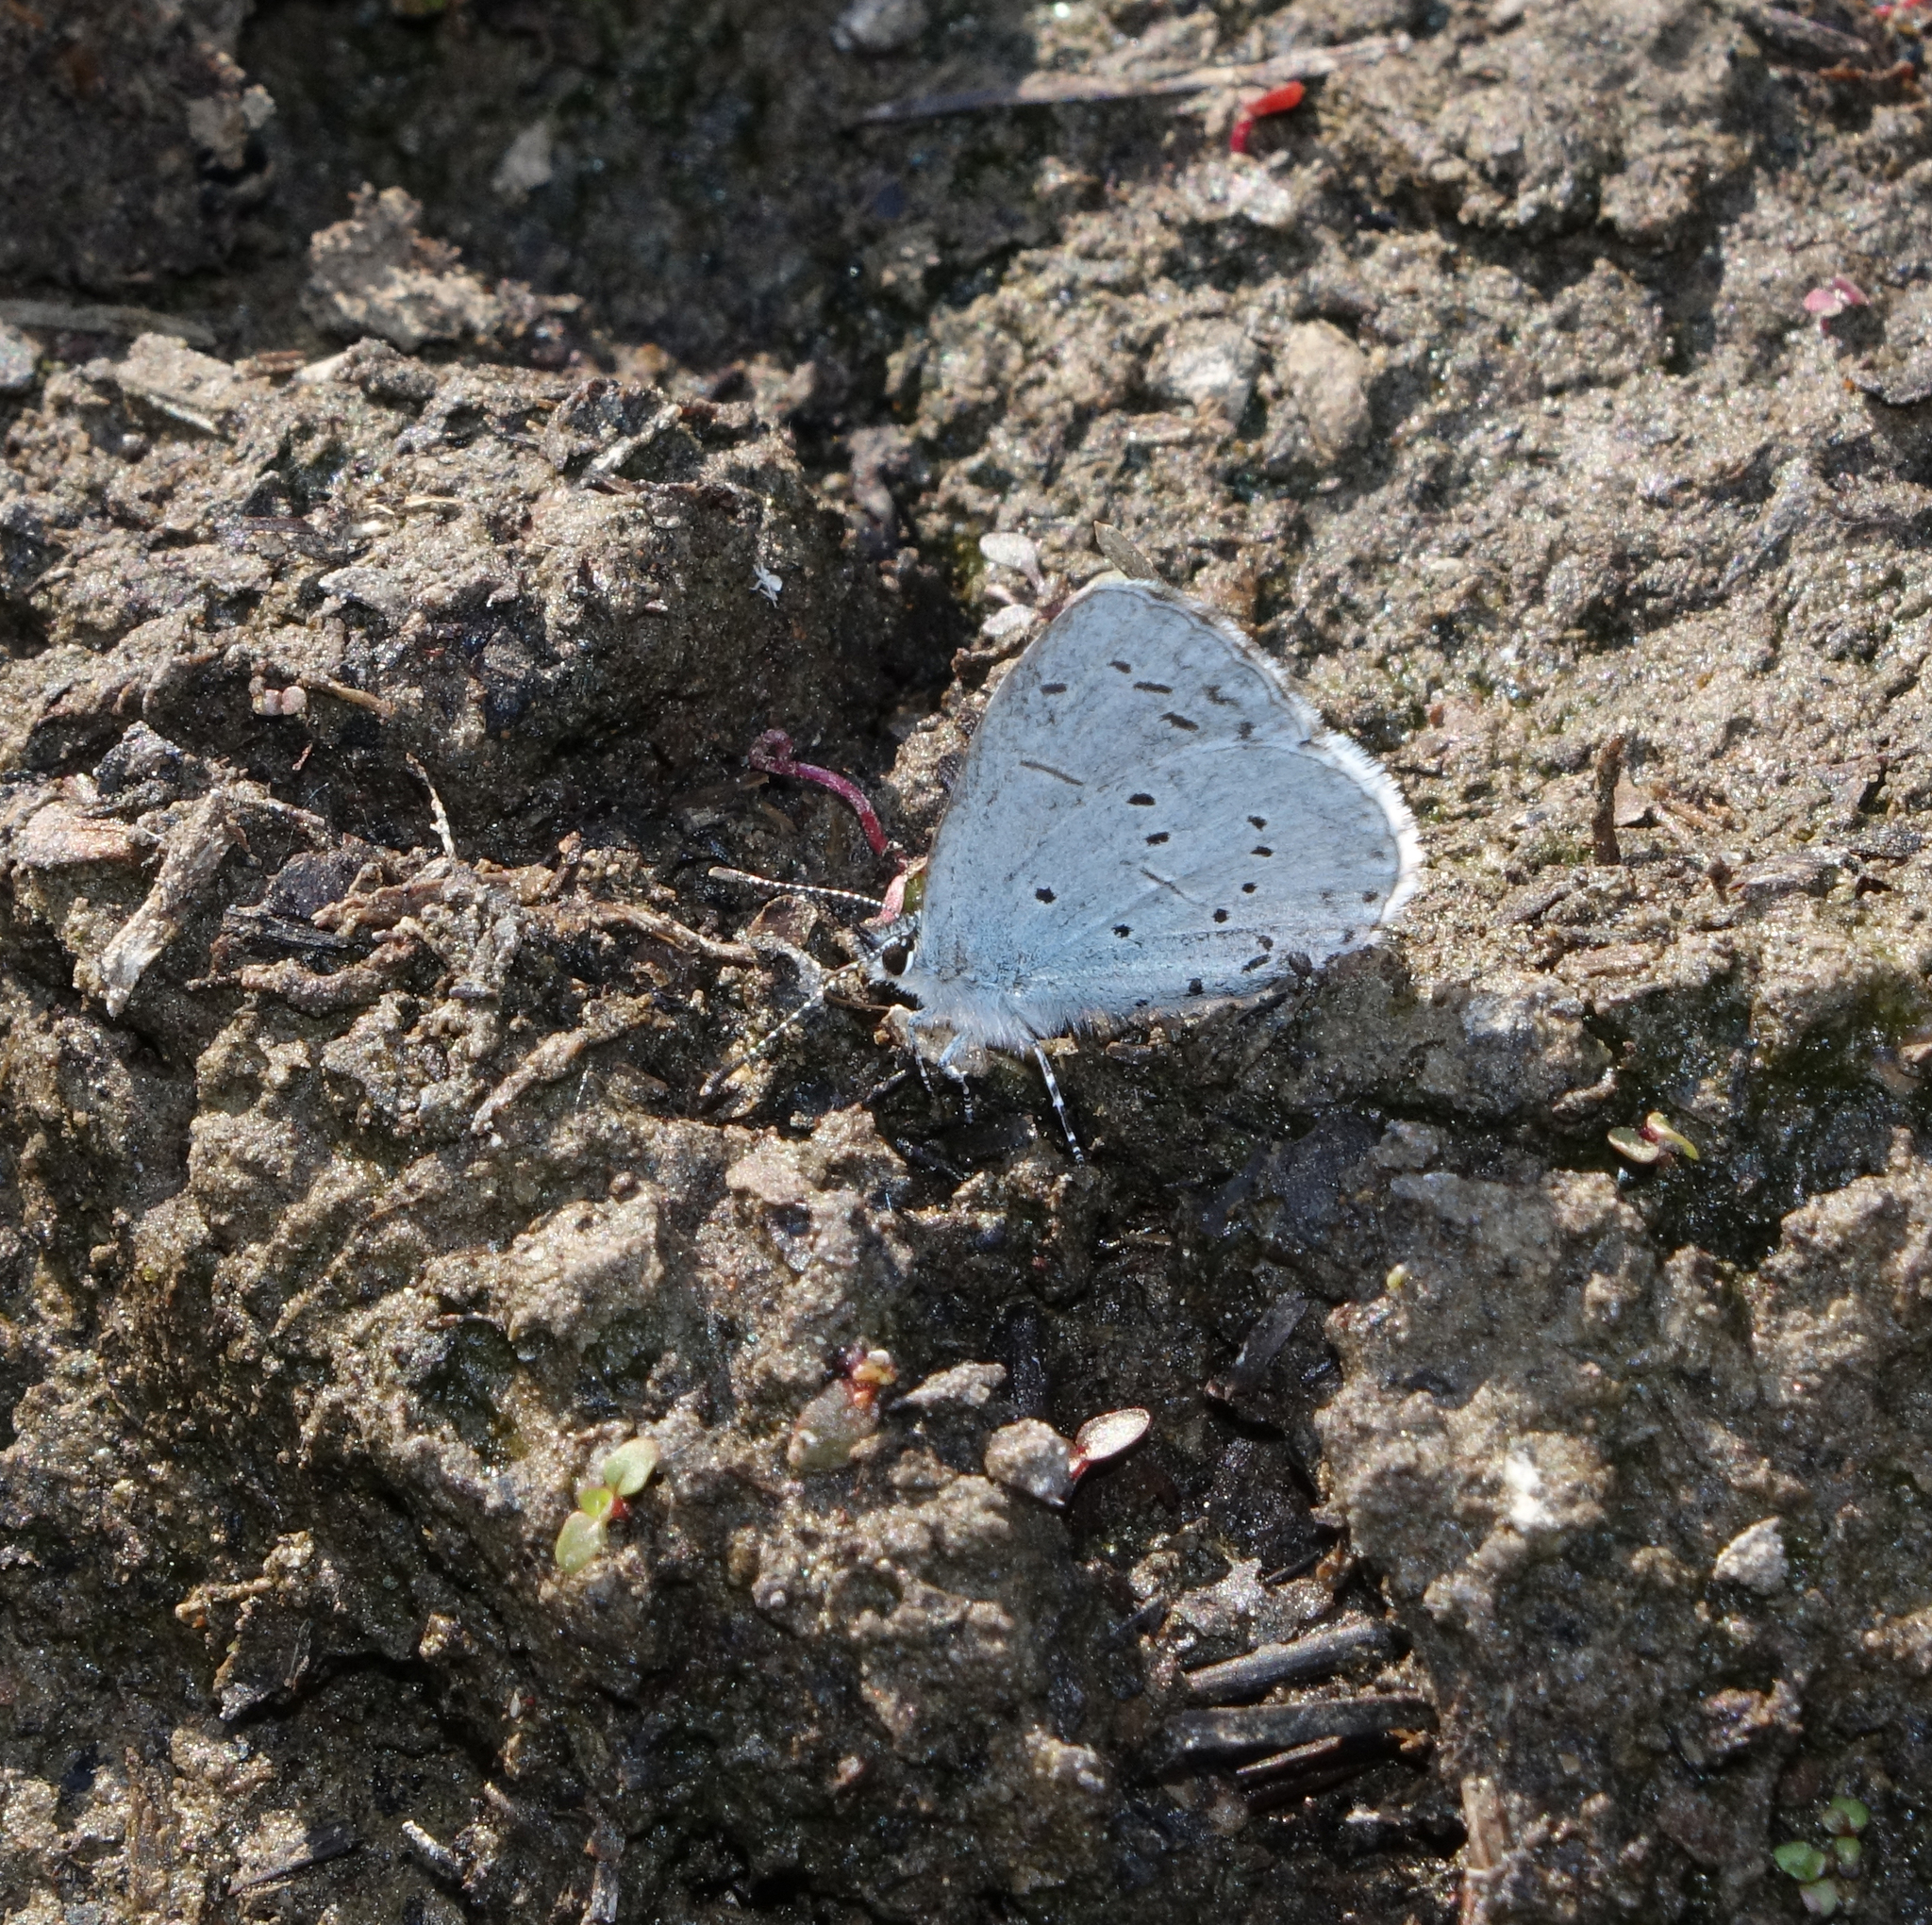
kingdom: Animalia
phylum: Arthropoda
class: Insecta
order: Lepidoptera
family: Lycaenidae
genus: Celastrina
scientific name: Celastrina argiolus
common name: Holly blue
